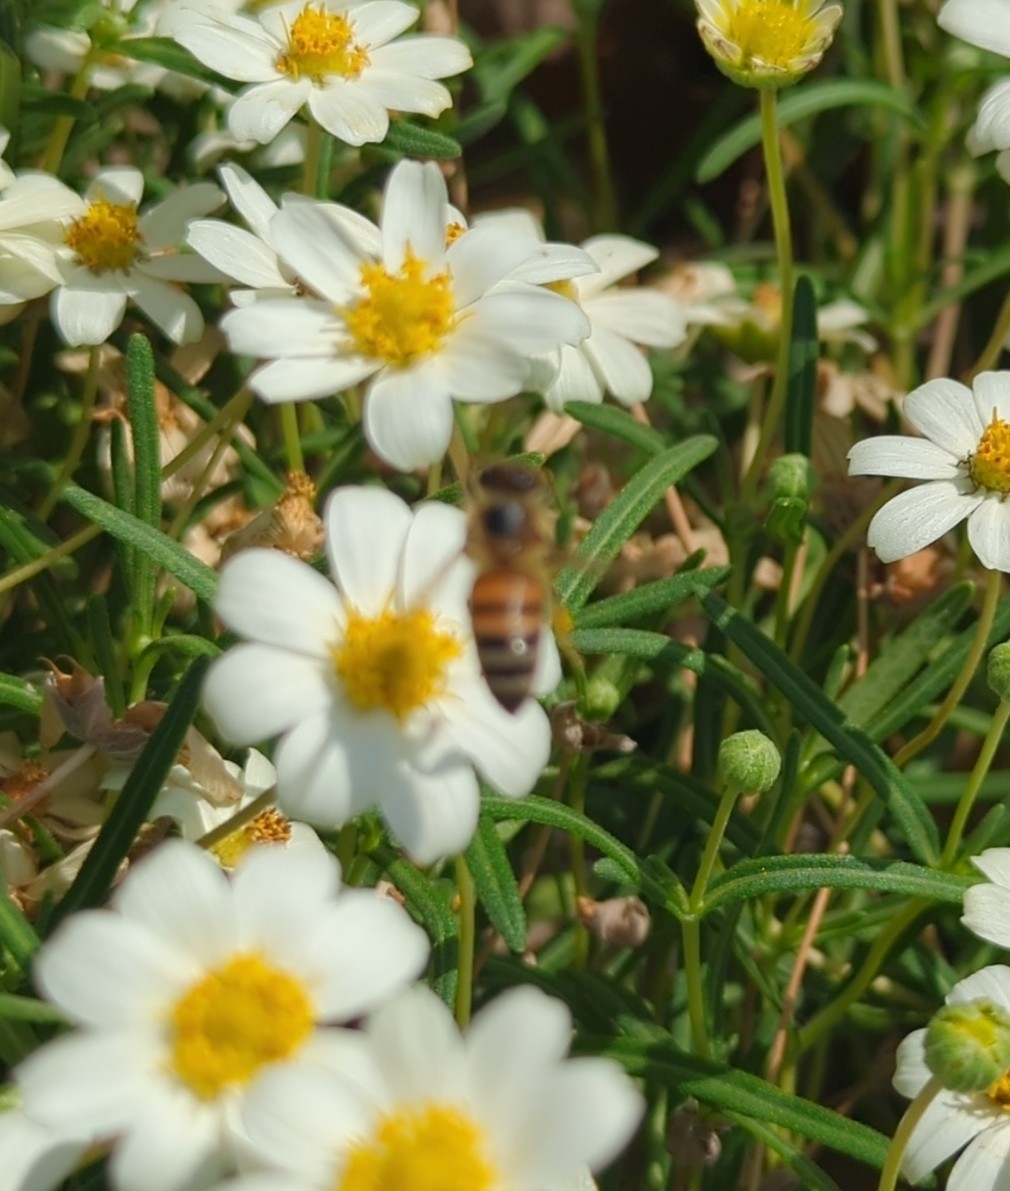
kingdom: Animalia
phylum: Arthropoda
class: Insecta
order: Hymenoptera
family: Apidae
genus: Apis
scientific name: Apis mellifera
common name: Honey bee
